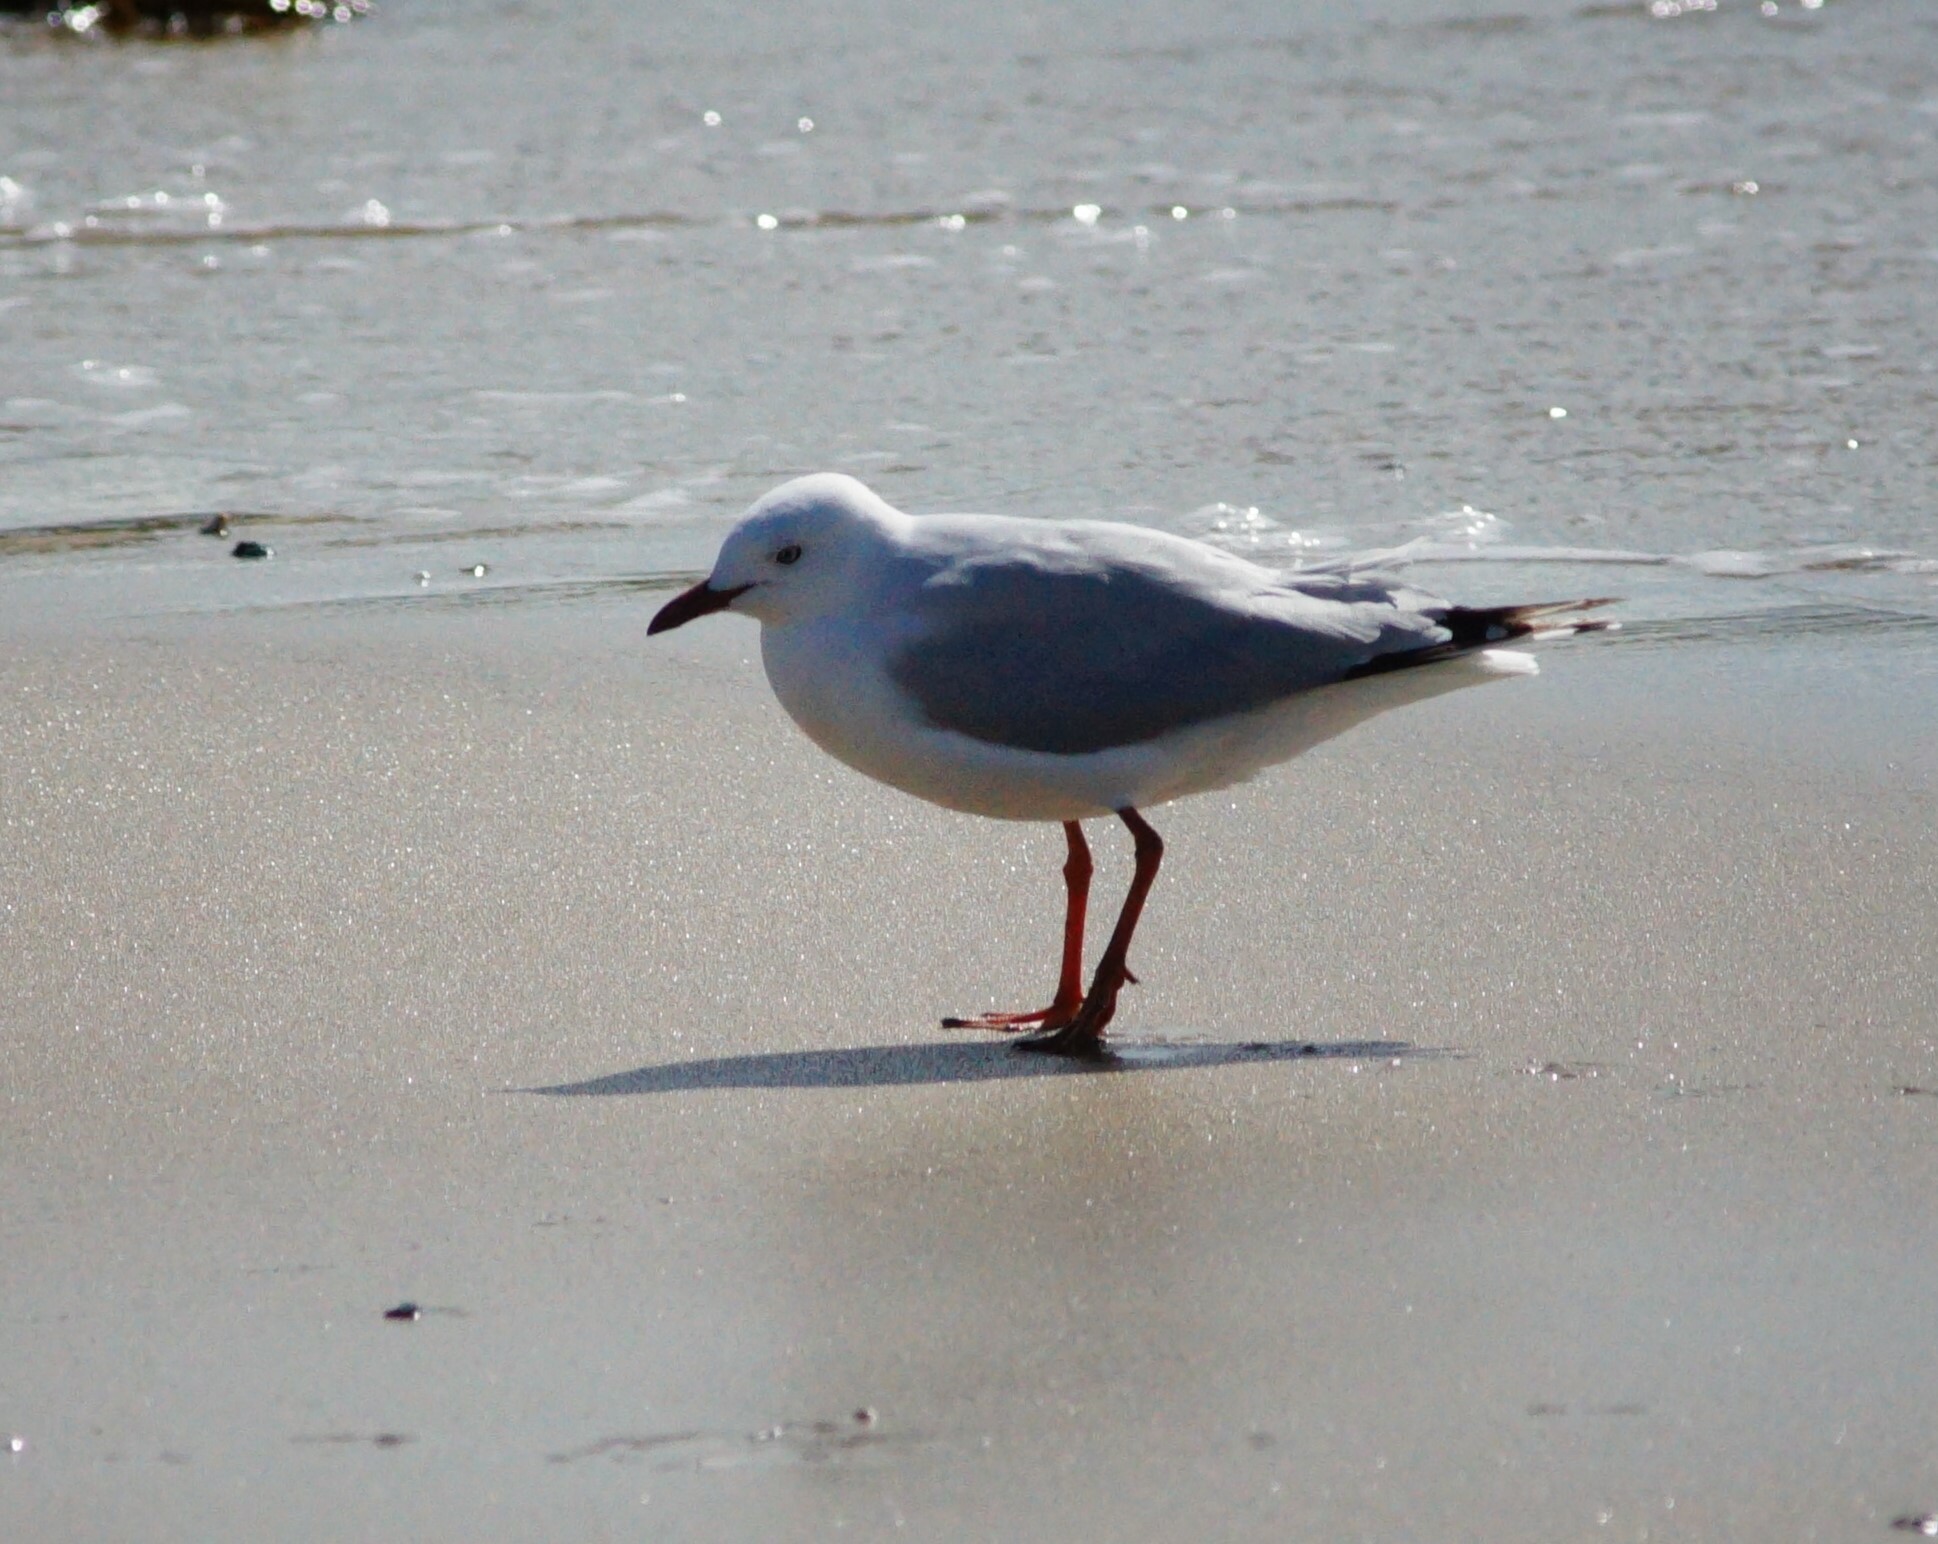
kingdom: Animalia
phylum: Chordata
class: Aves
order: Charadriiformes
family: Laridae
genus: Chroicocephalus
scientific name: Chroicocephalus novaehollandiae
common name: Silver gull
